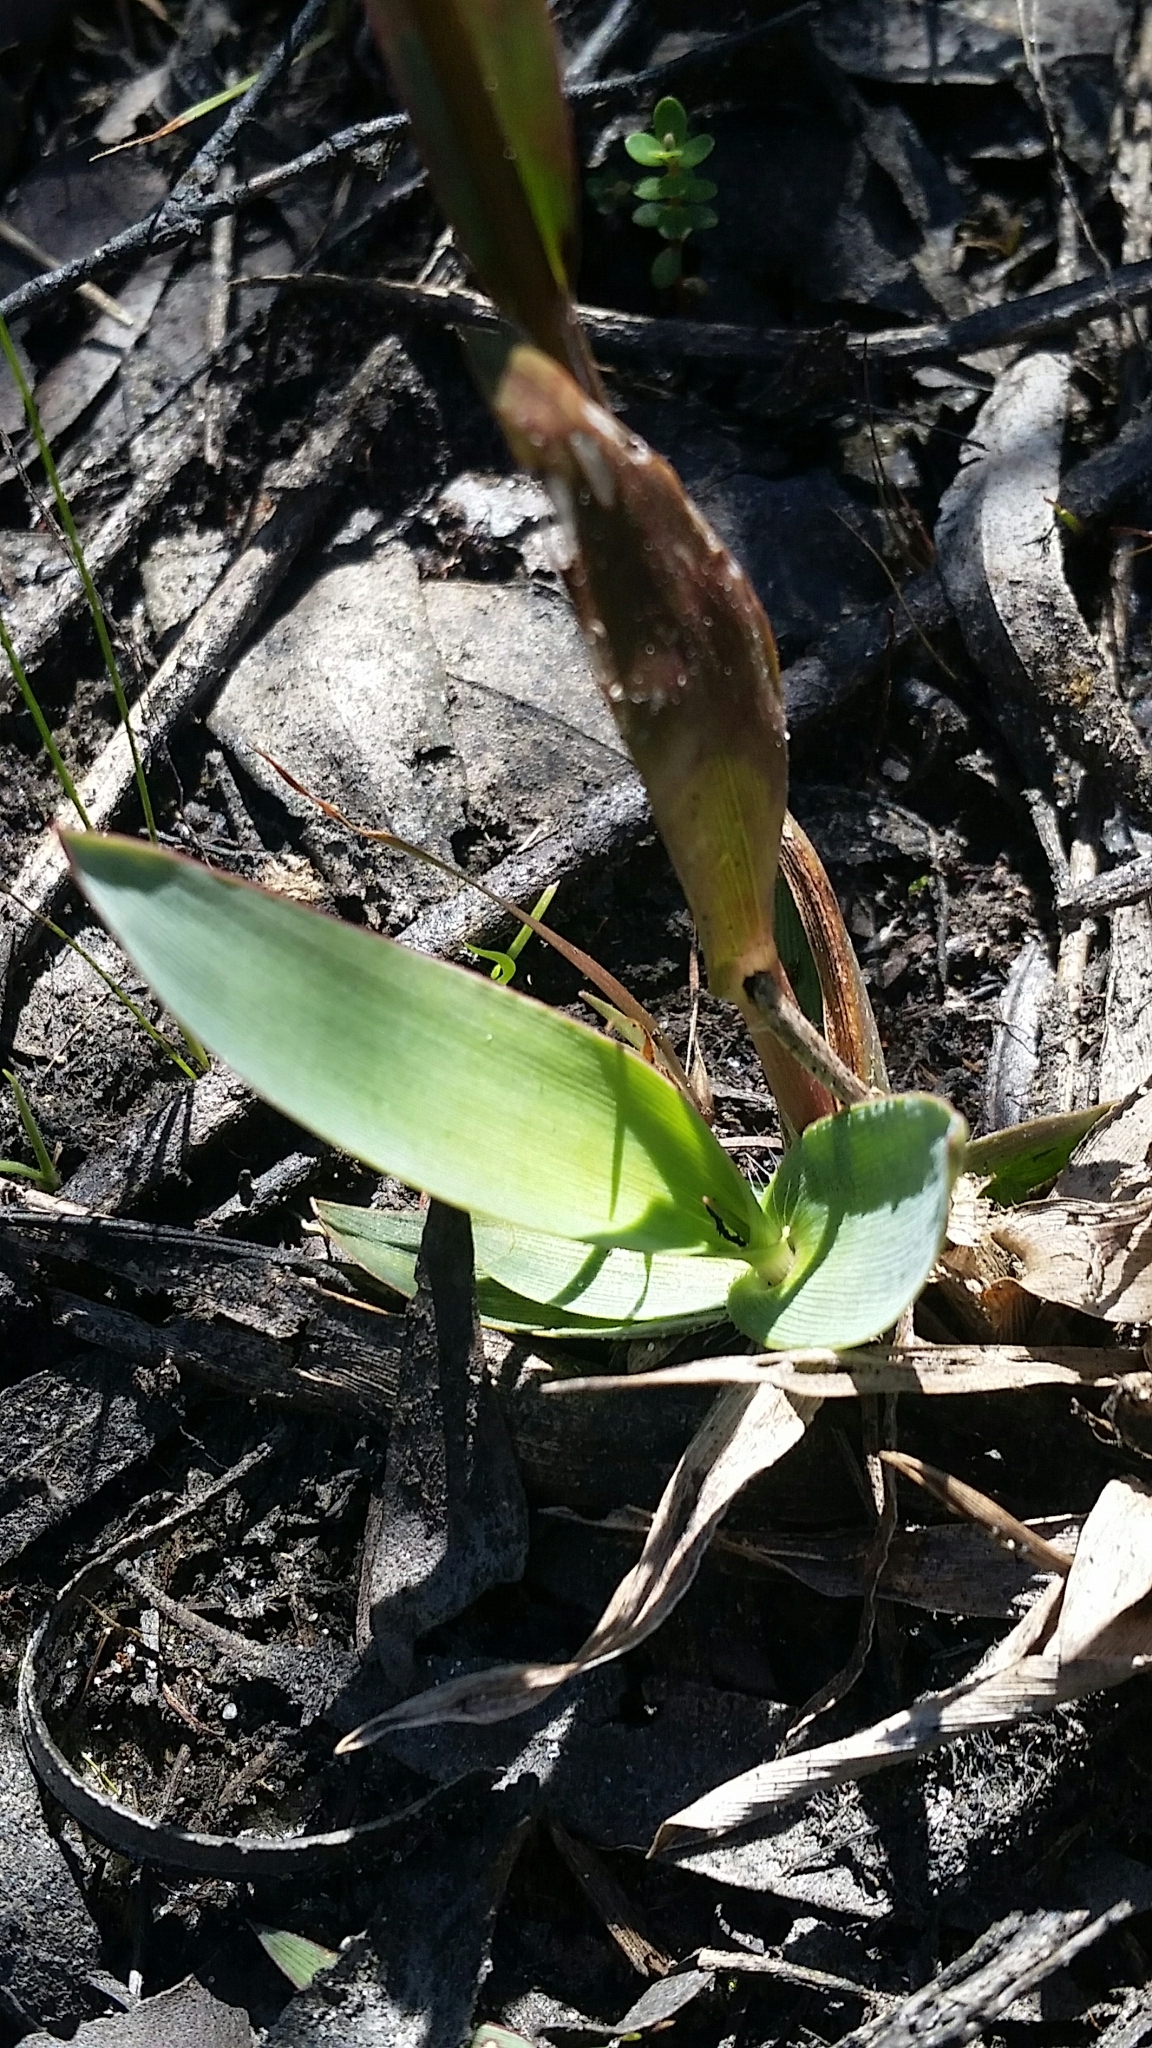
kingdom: Plantae
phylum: Tracheophyta
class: Liliopsida
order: Poales
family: Poaceae
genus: Dichanthelium
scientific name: Dichanthelium erectifolium
